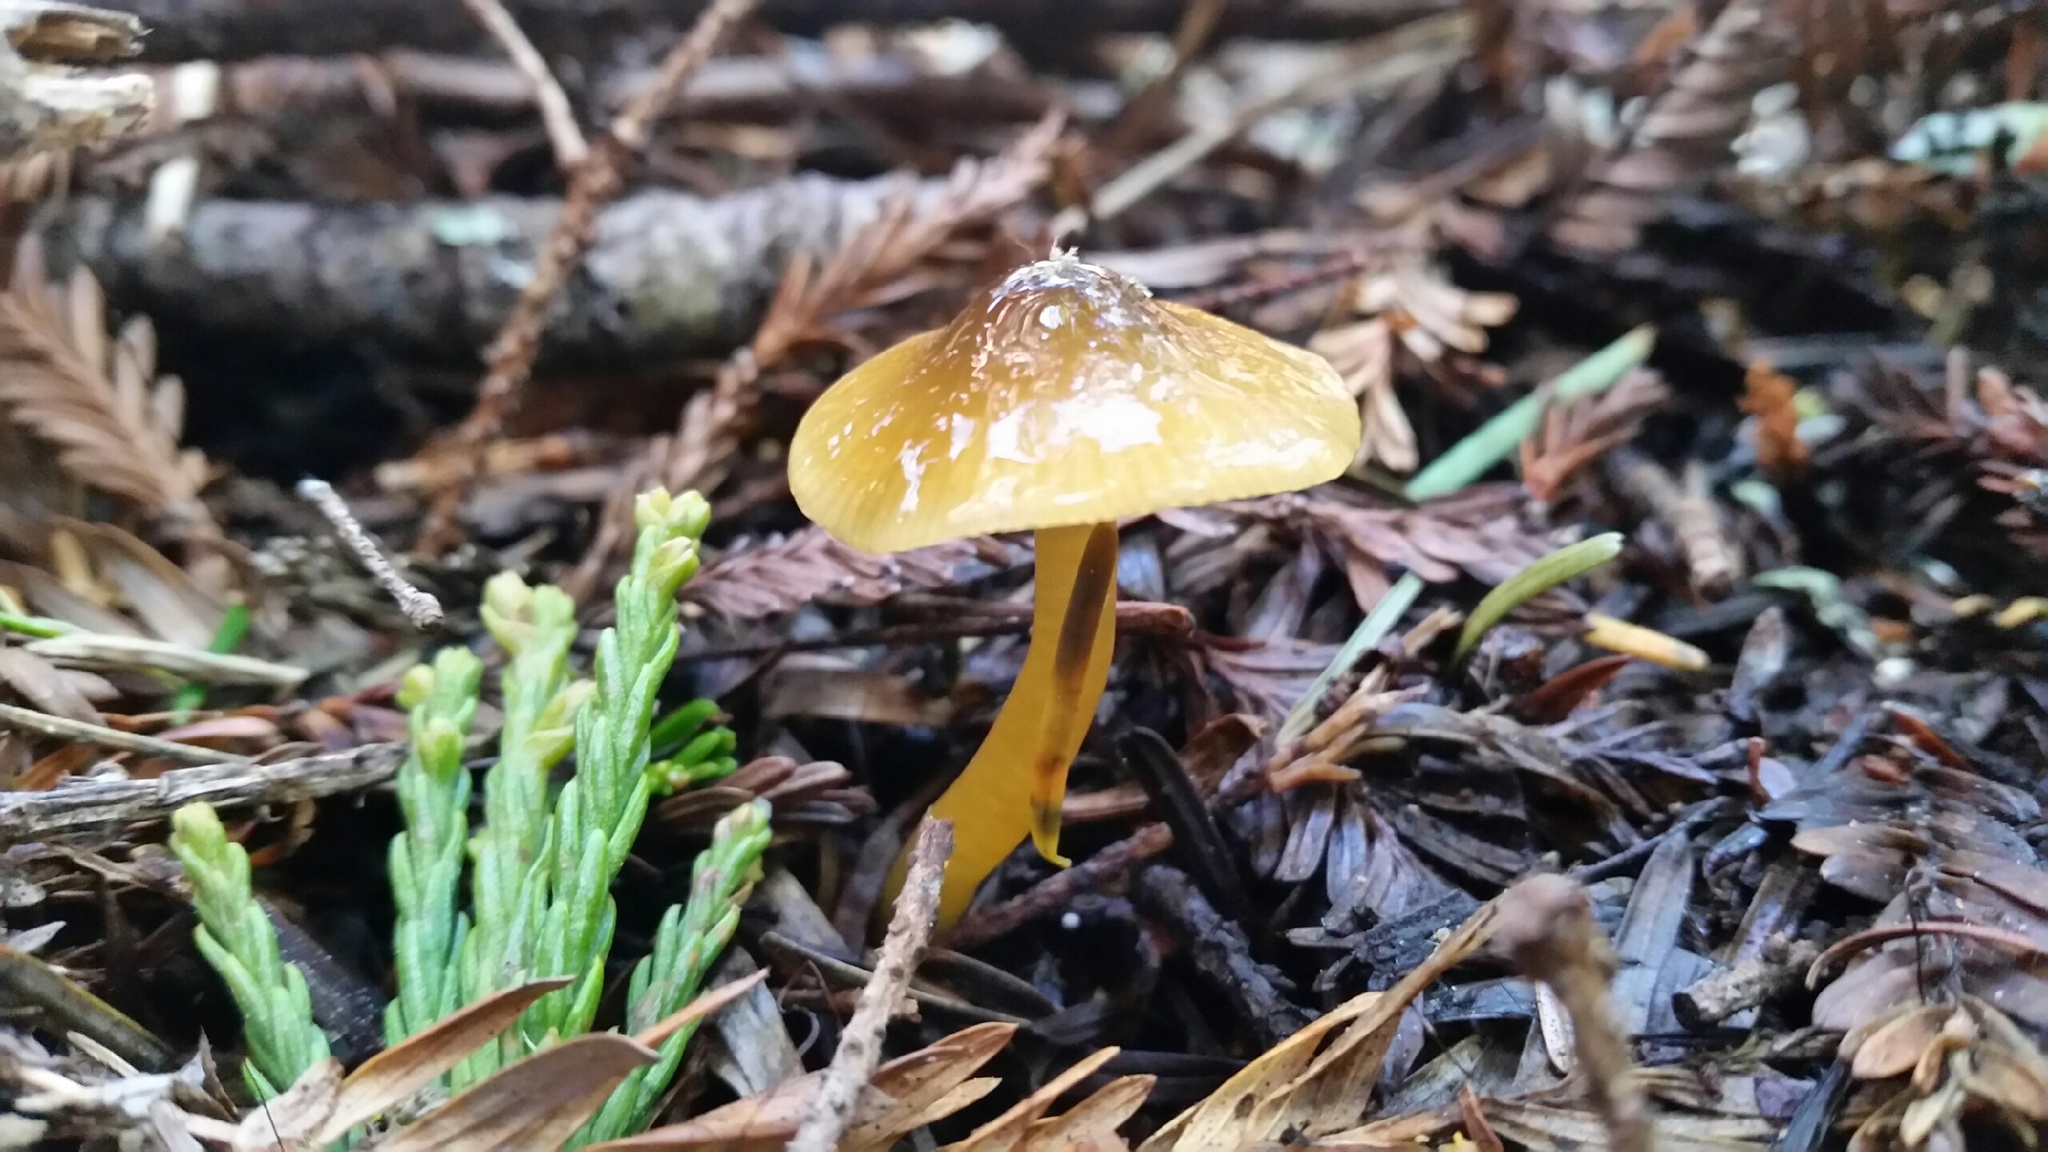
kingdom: Fungi
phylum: Basidiomycota
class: Agaricomycetes
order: Agaricales
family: Hygrophoraceae
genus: Gliophorus
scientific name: Gliophorus psittacinus
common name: Parrot wax-cap
